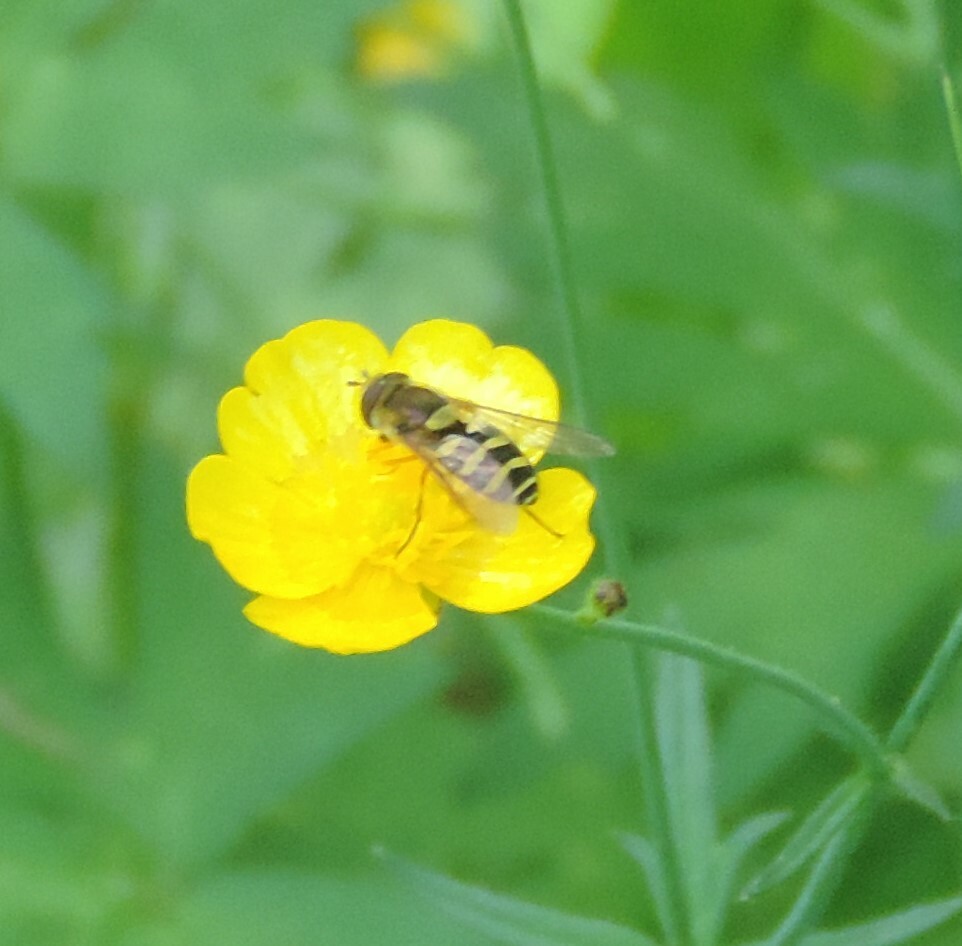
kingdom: Animalia
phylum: Arthropoda
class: Insecta
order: Diptera
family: Syrphidae
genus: Syrphus
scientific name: Syrphus opinator
